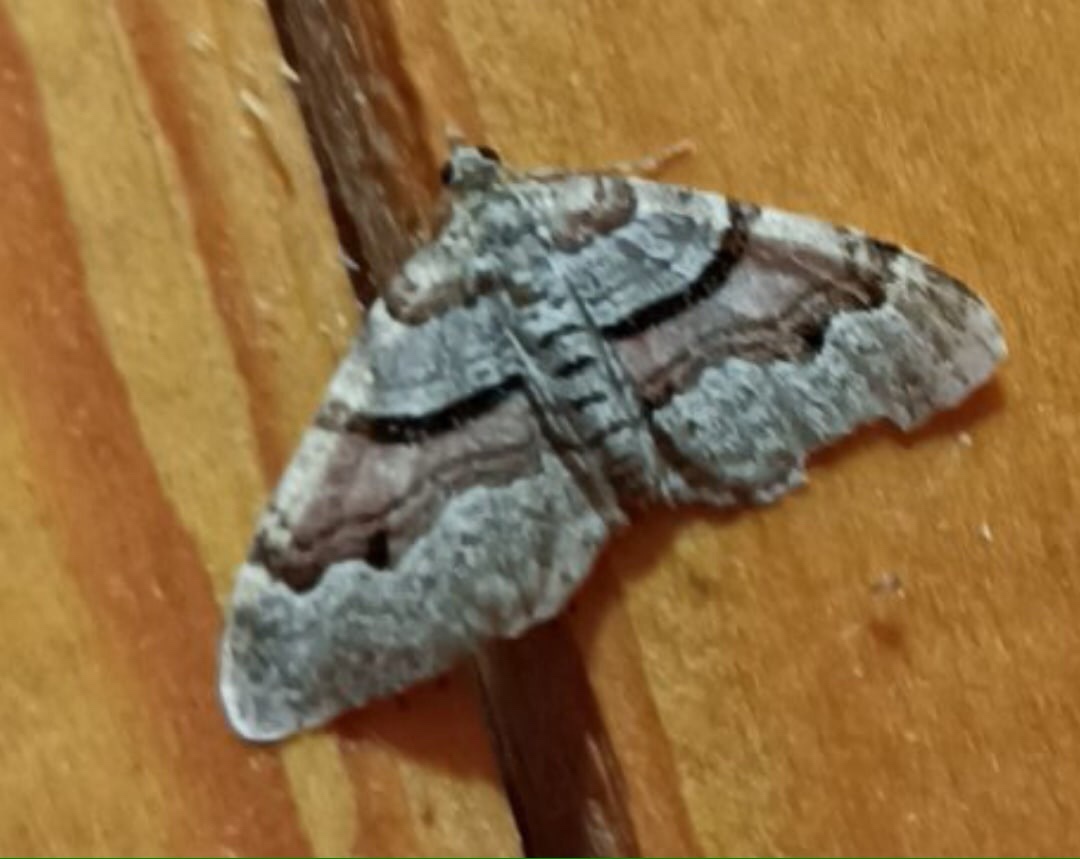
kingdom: Animalia
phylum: Arthropoda
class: Insecta
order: Lepidoptera
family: Geometridae
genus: Xanthorhoe
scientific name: Xanthorhoe designata
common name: Flame carpet
